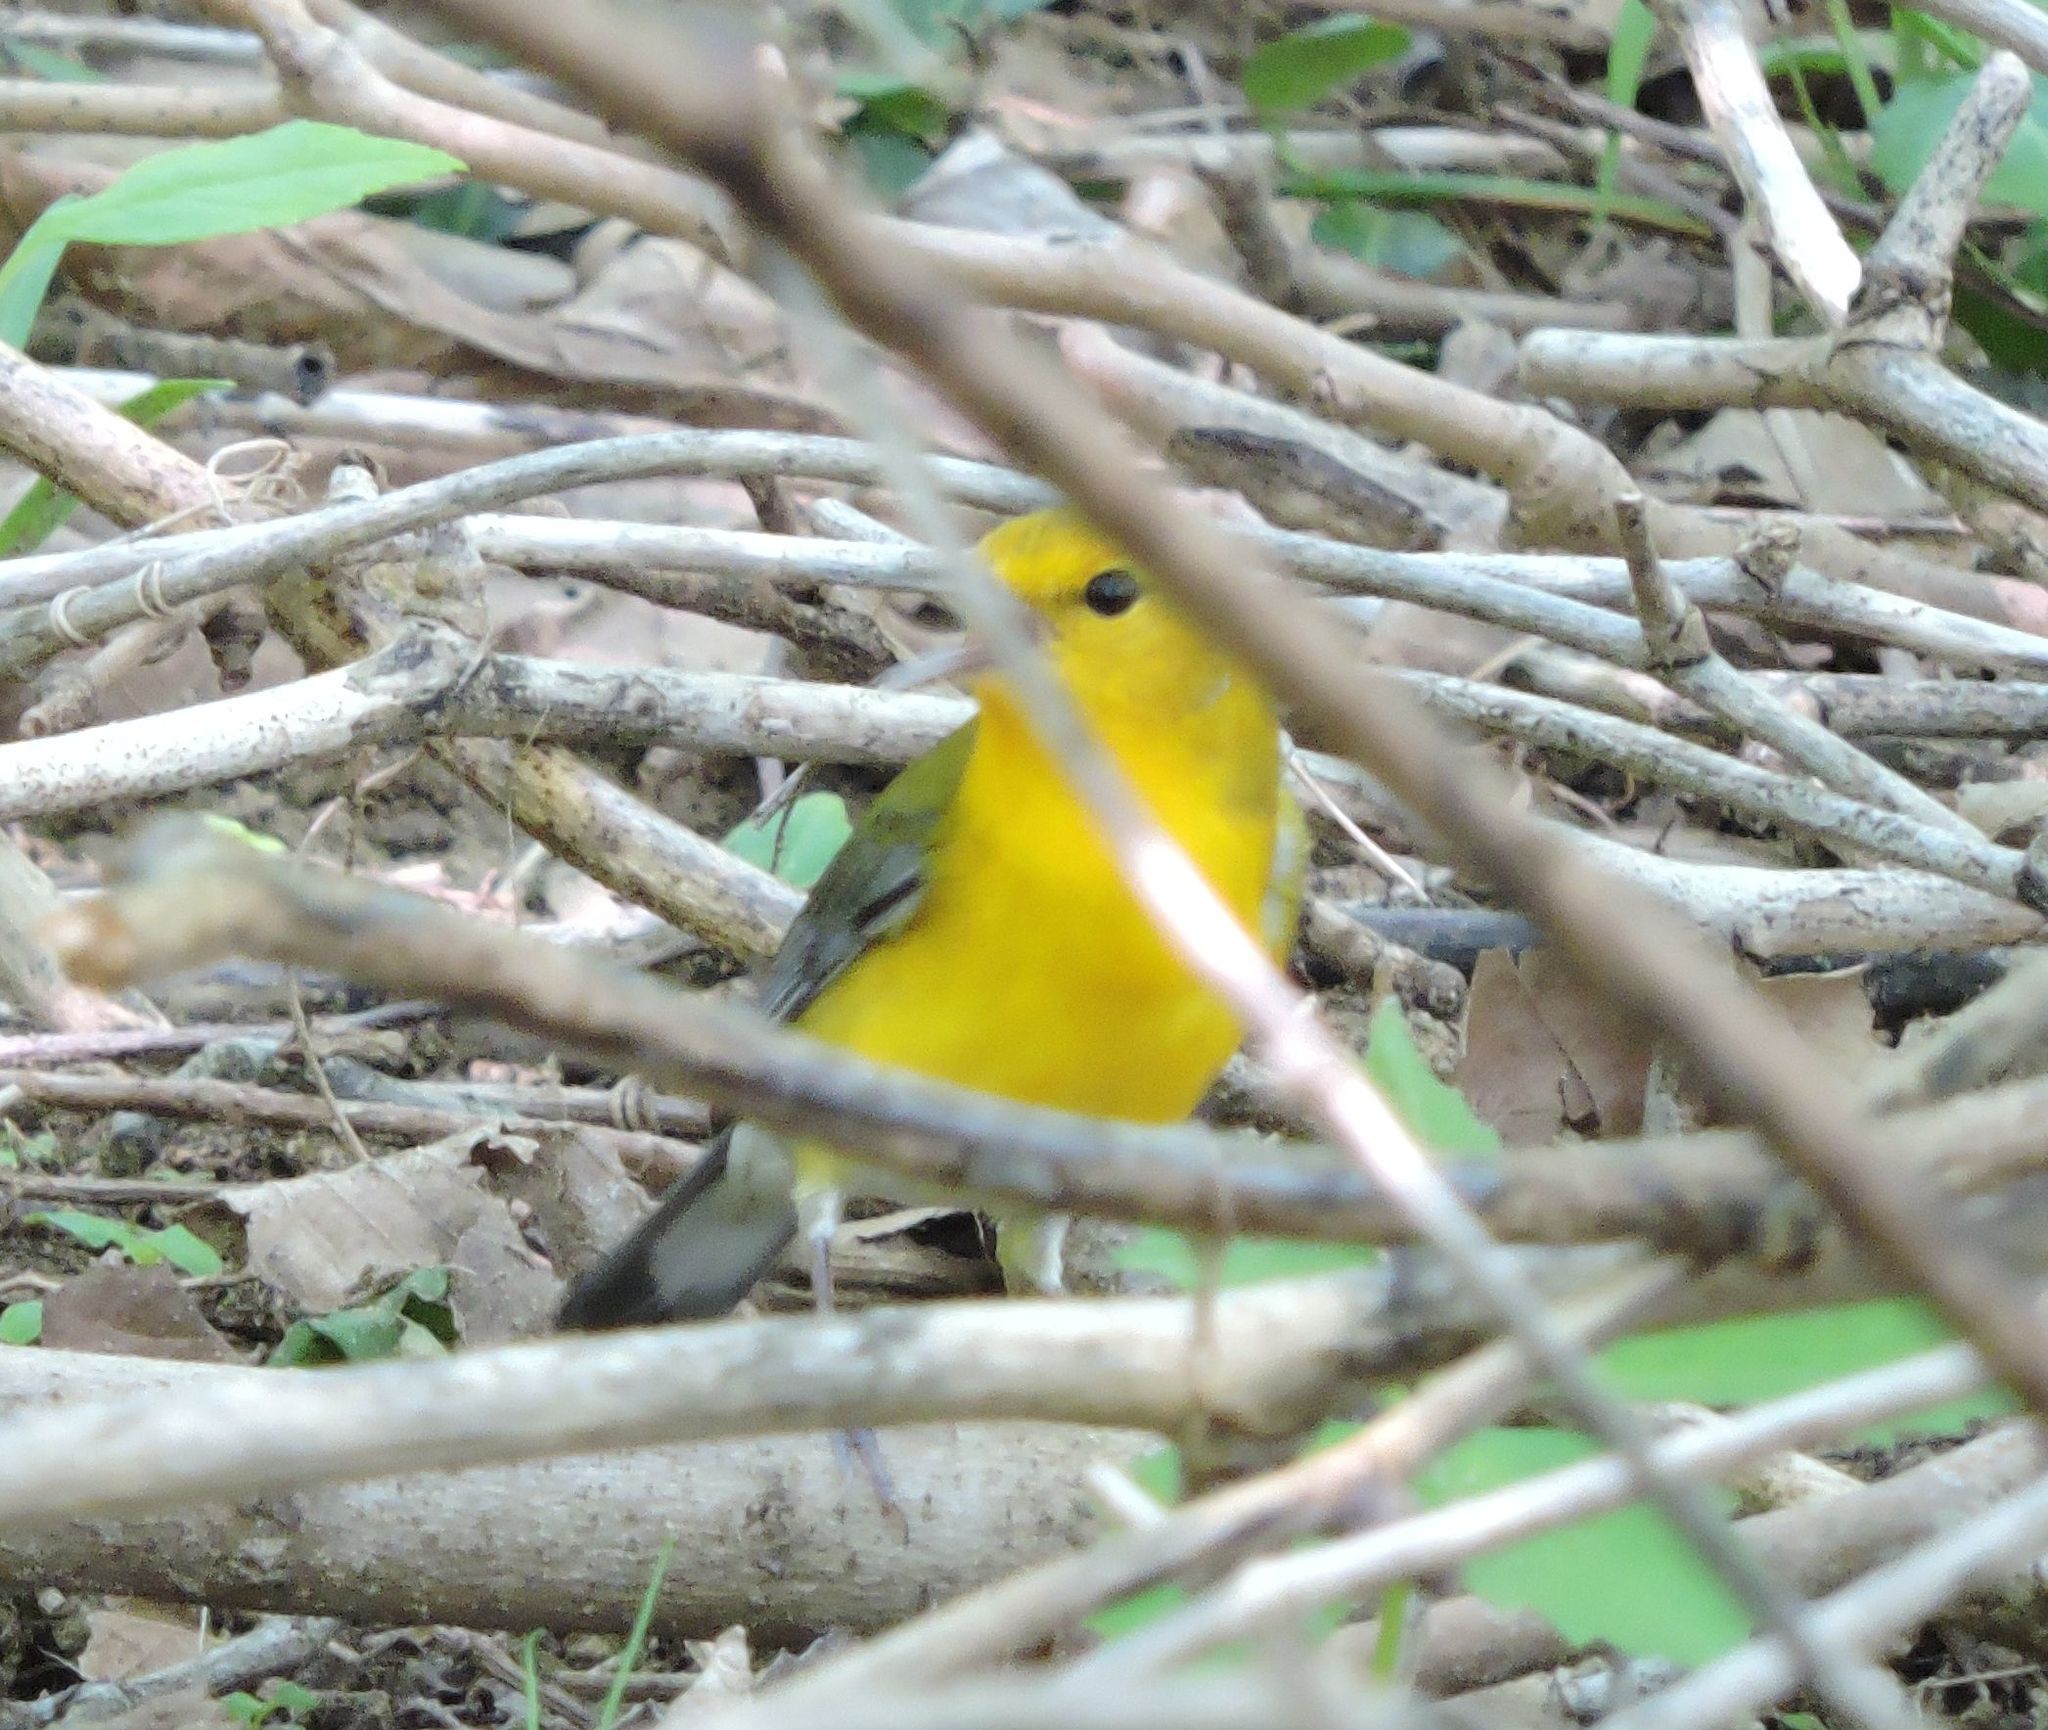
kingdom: Animalia
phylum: Chordata
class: Aves
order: Passeriformes
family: Parulidae
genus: Protonotaria
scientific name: Protonotaria citrea
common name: Prothonotary warbler
